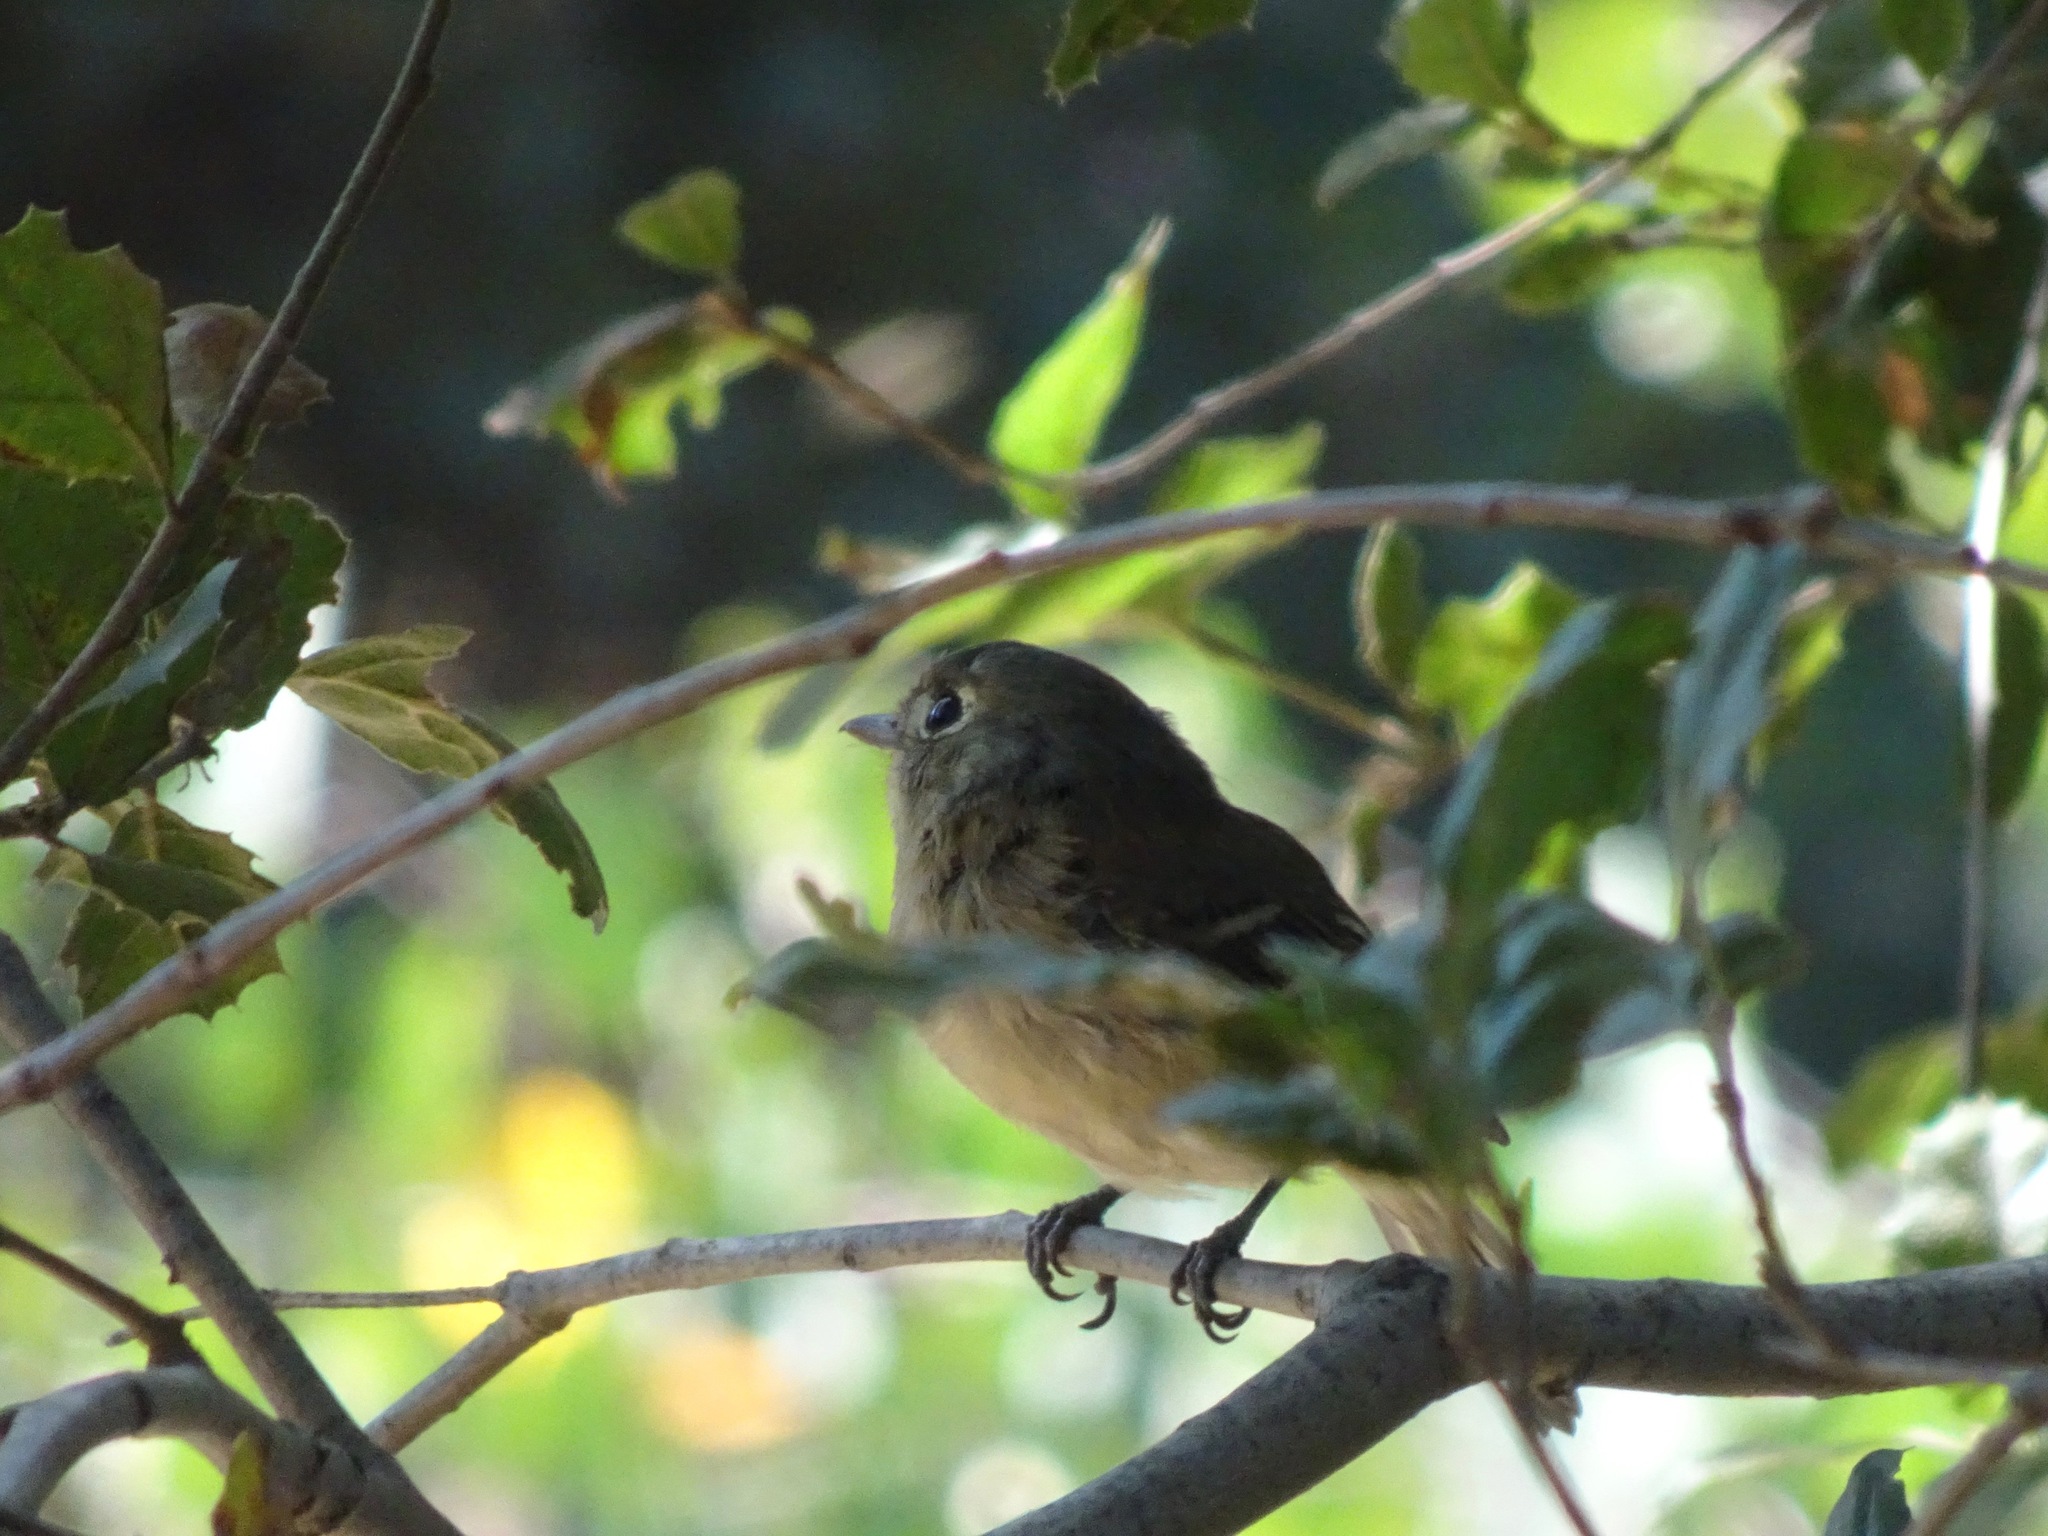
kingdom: Animalia
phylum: Chordata
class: Aves
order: Passeriformes
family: Vireonidae
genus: Vireo
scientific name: Vireo huttoni
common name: Hutton's vireo
